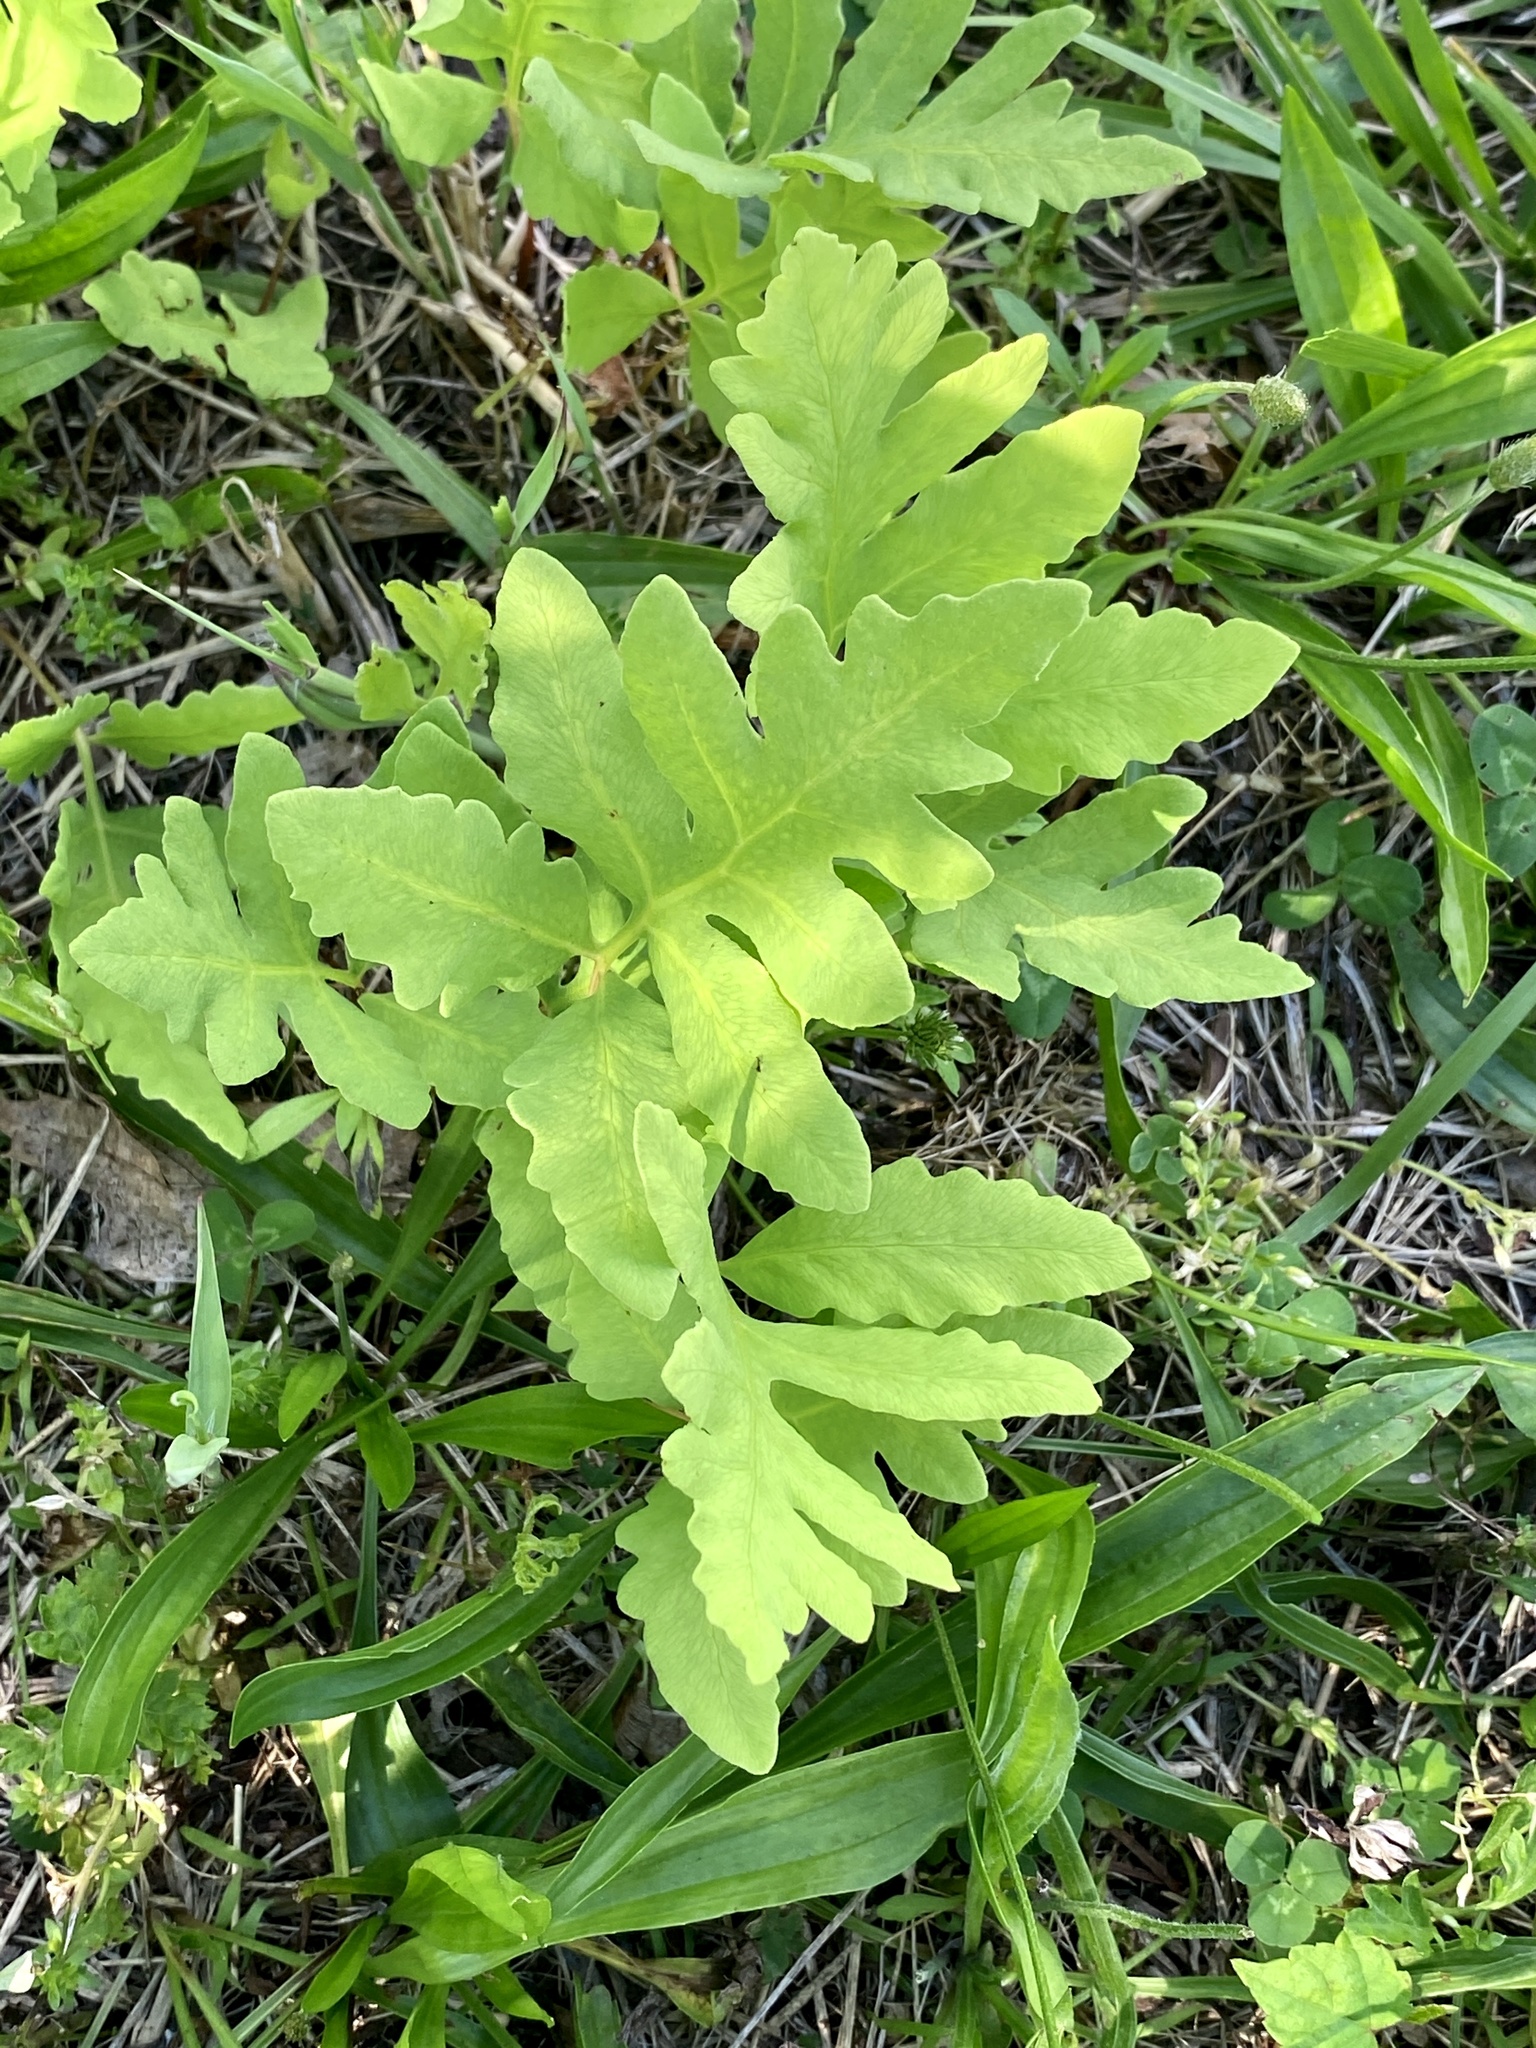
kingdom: Plantae
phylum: Tracheophyta
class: Polypodiopsida
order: Polypodiales
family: Onocleaceae
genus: Onoclea
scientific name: Onoclea sensibilis
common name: Sensitive fern
